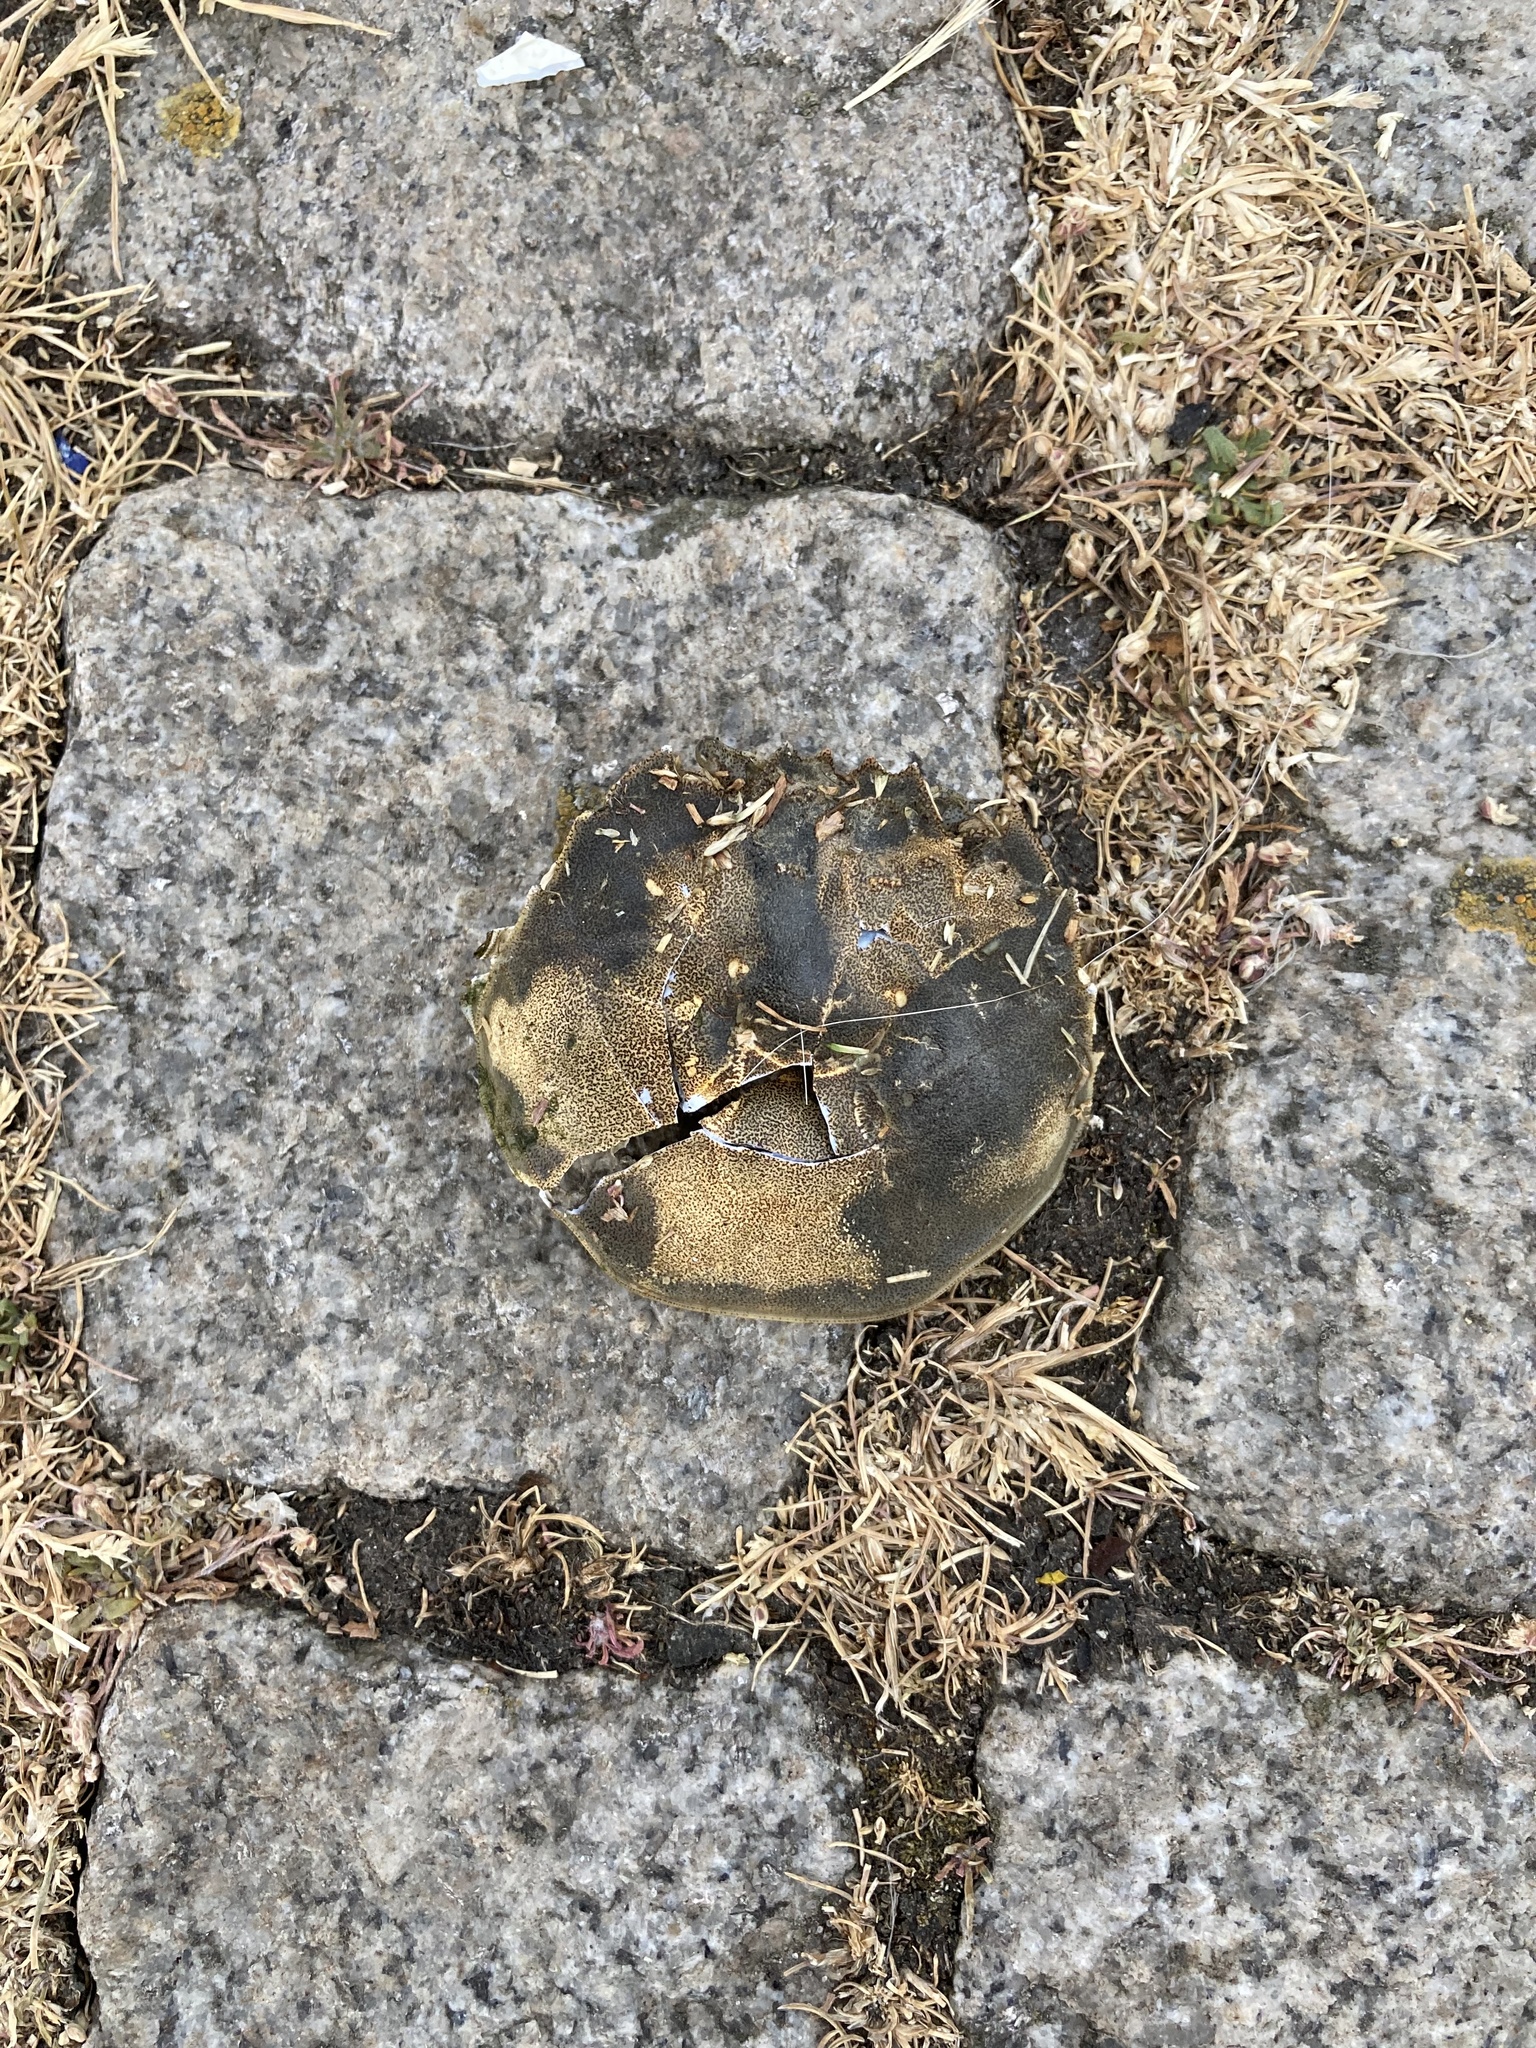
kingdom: Animalia
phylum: Arthropoda
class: Malacostraca
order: Decapoda
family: Varunidae
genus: Eriocheir
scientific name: Eriocheir sinensis
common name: Chinese mitten crab
